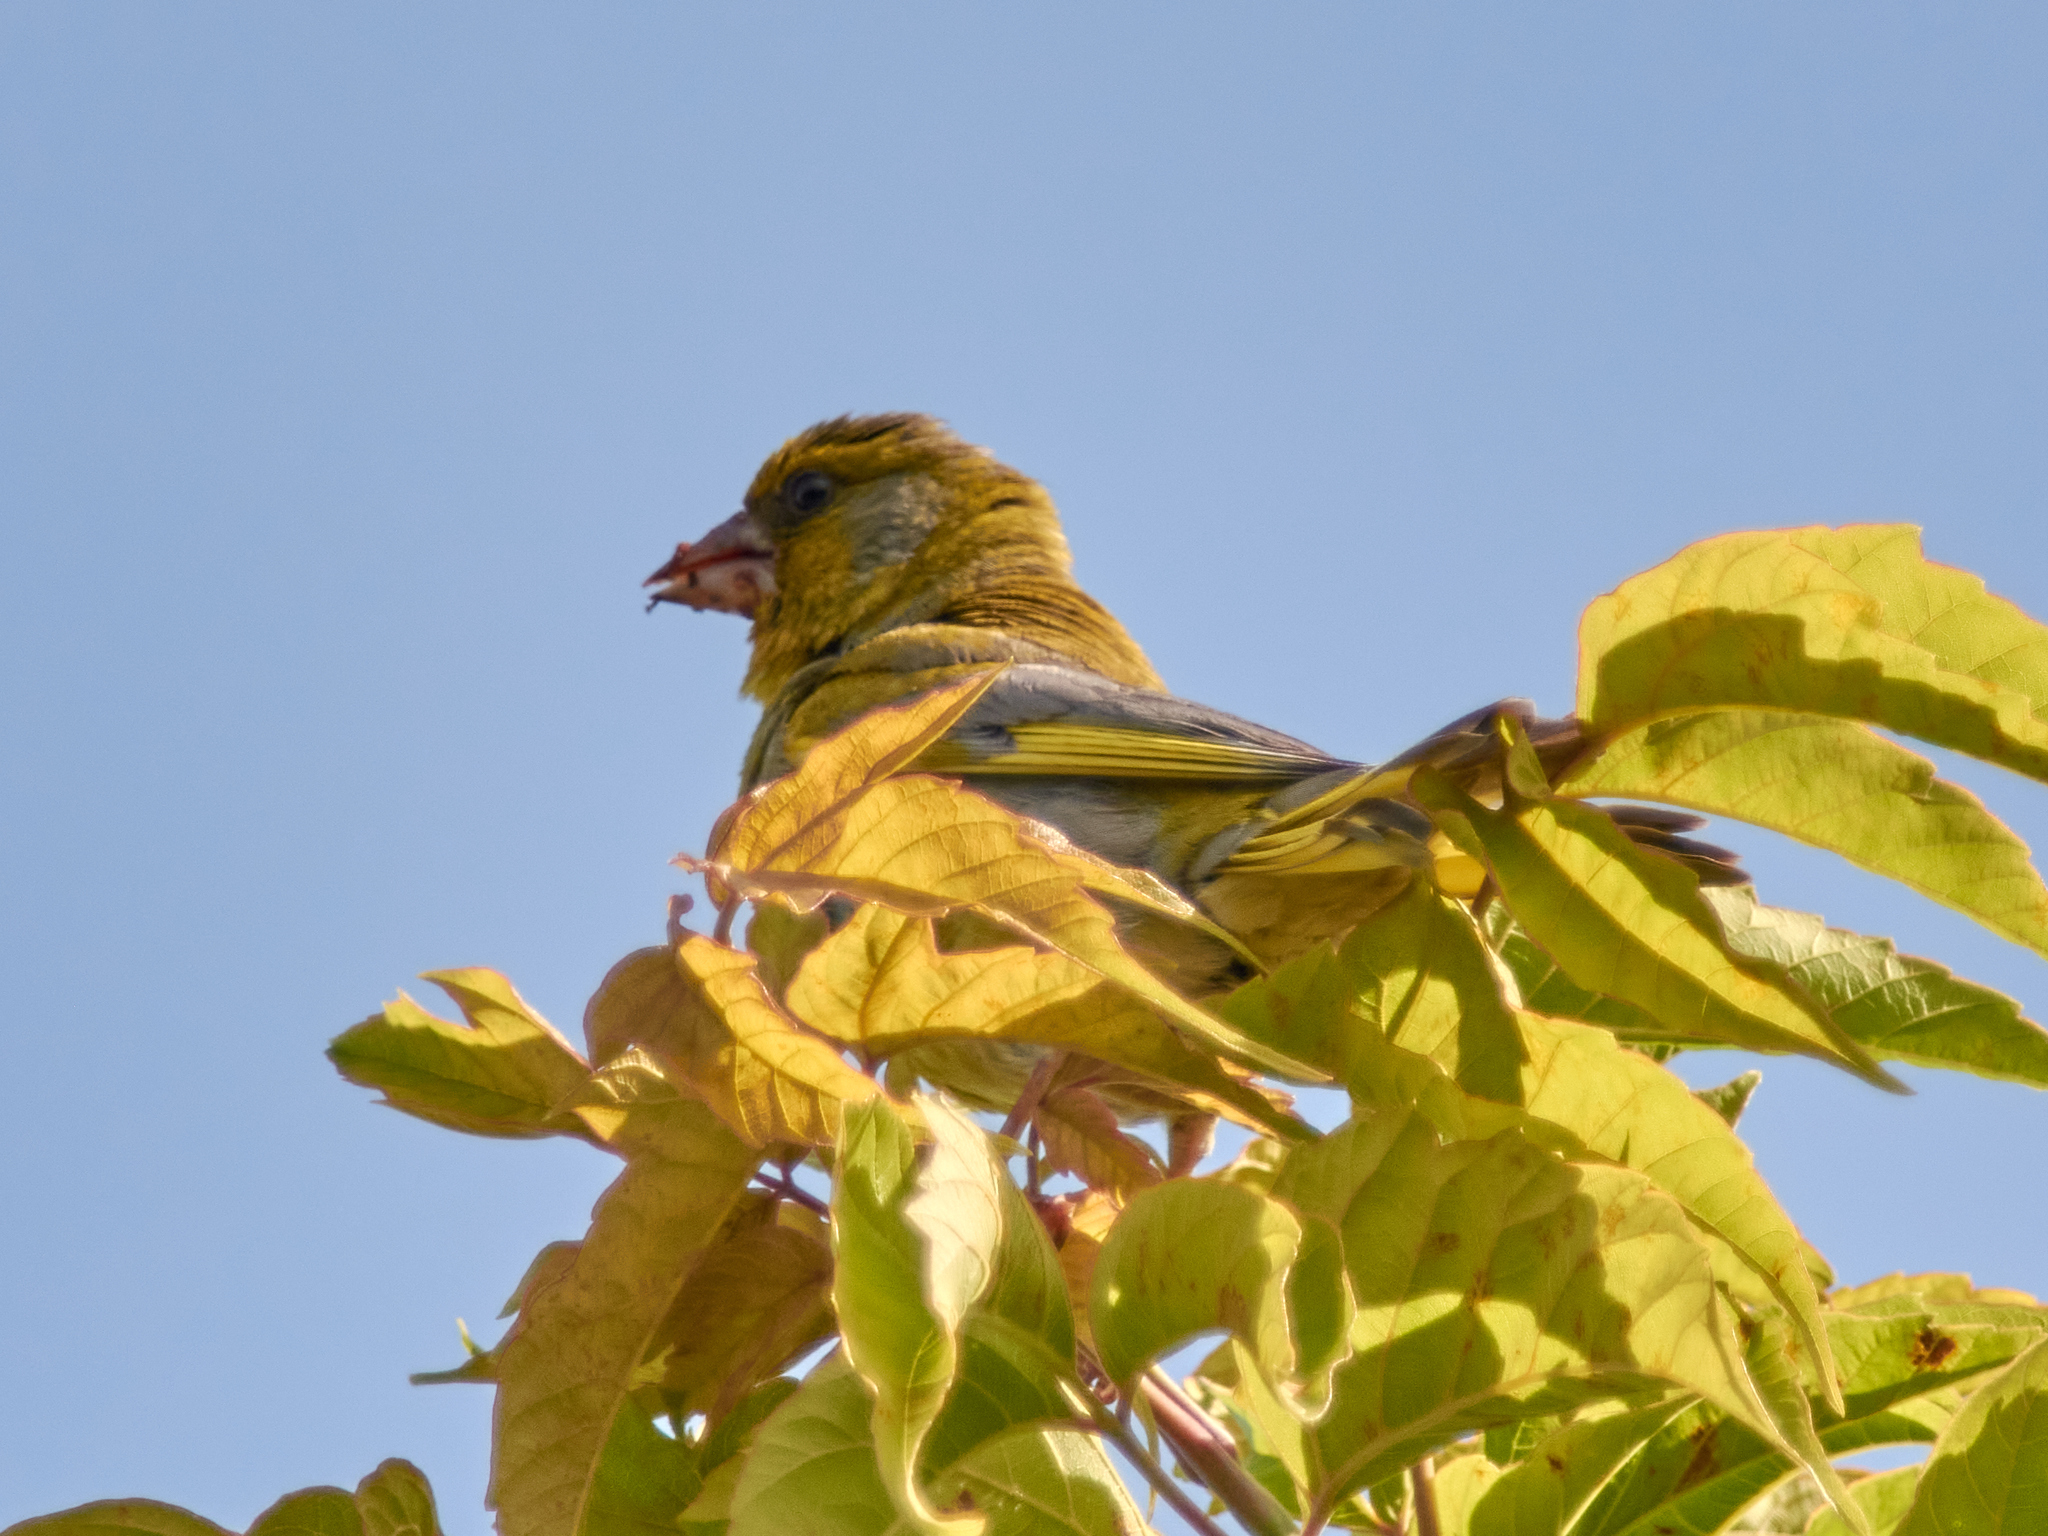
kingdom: Plantae
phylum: Tracheophyta
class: Liliopsida
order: Poales
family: Poaceae
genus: Chloris
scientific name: Chloris chloris
